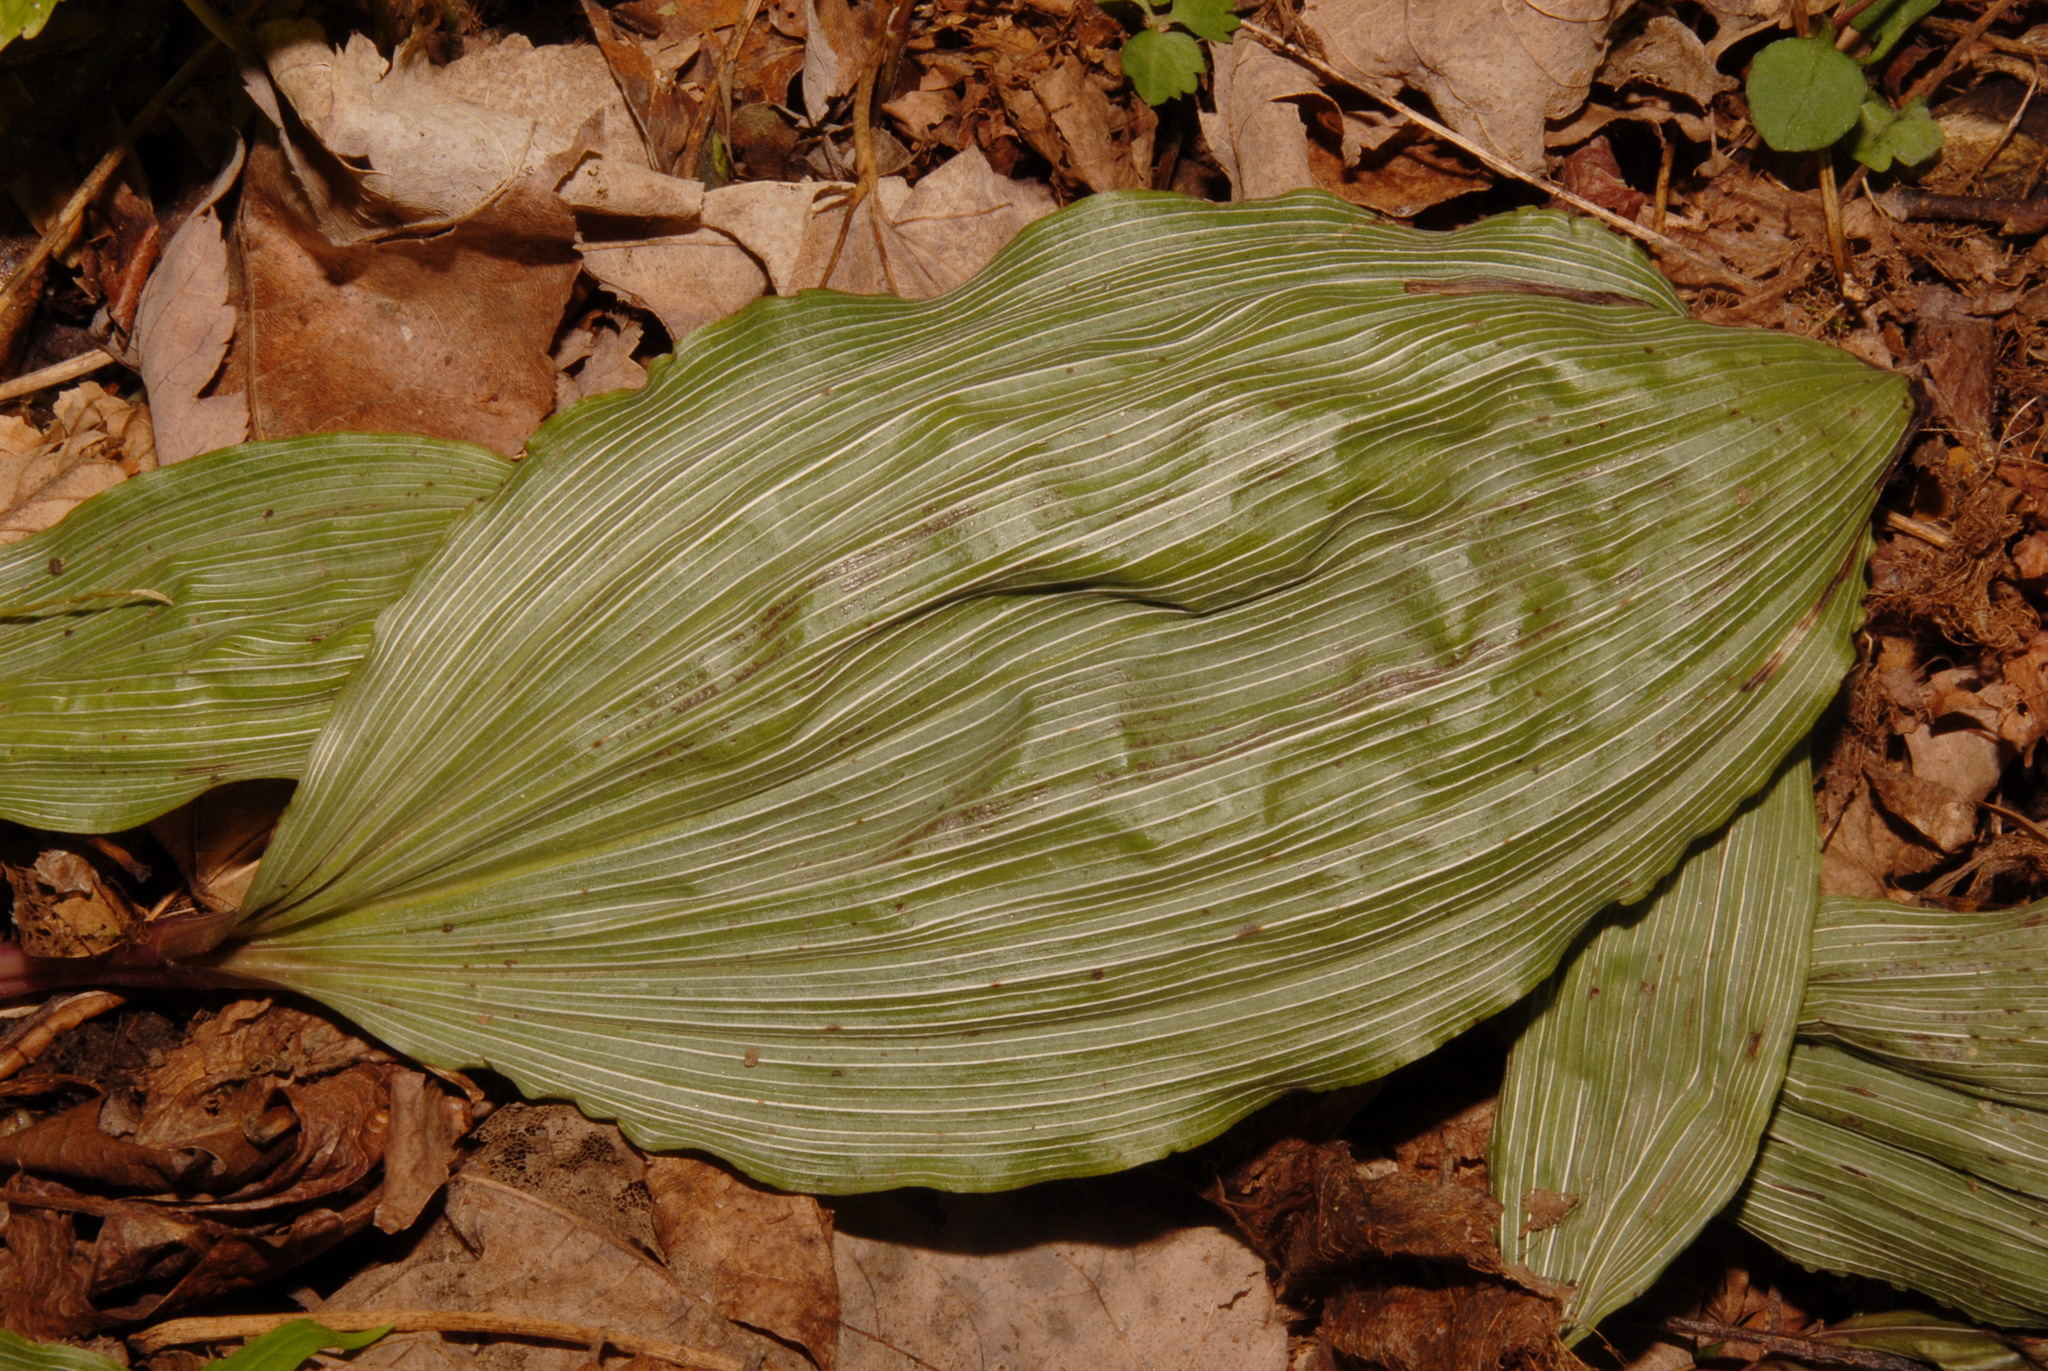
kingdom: Plantae
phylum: Tracheophyta
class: Liliopsida
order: Asparagales
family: Orchidaceae
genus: Aplectrum
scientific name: Aplectrum hyemale
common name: Adam-and-eve
